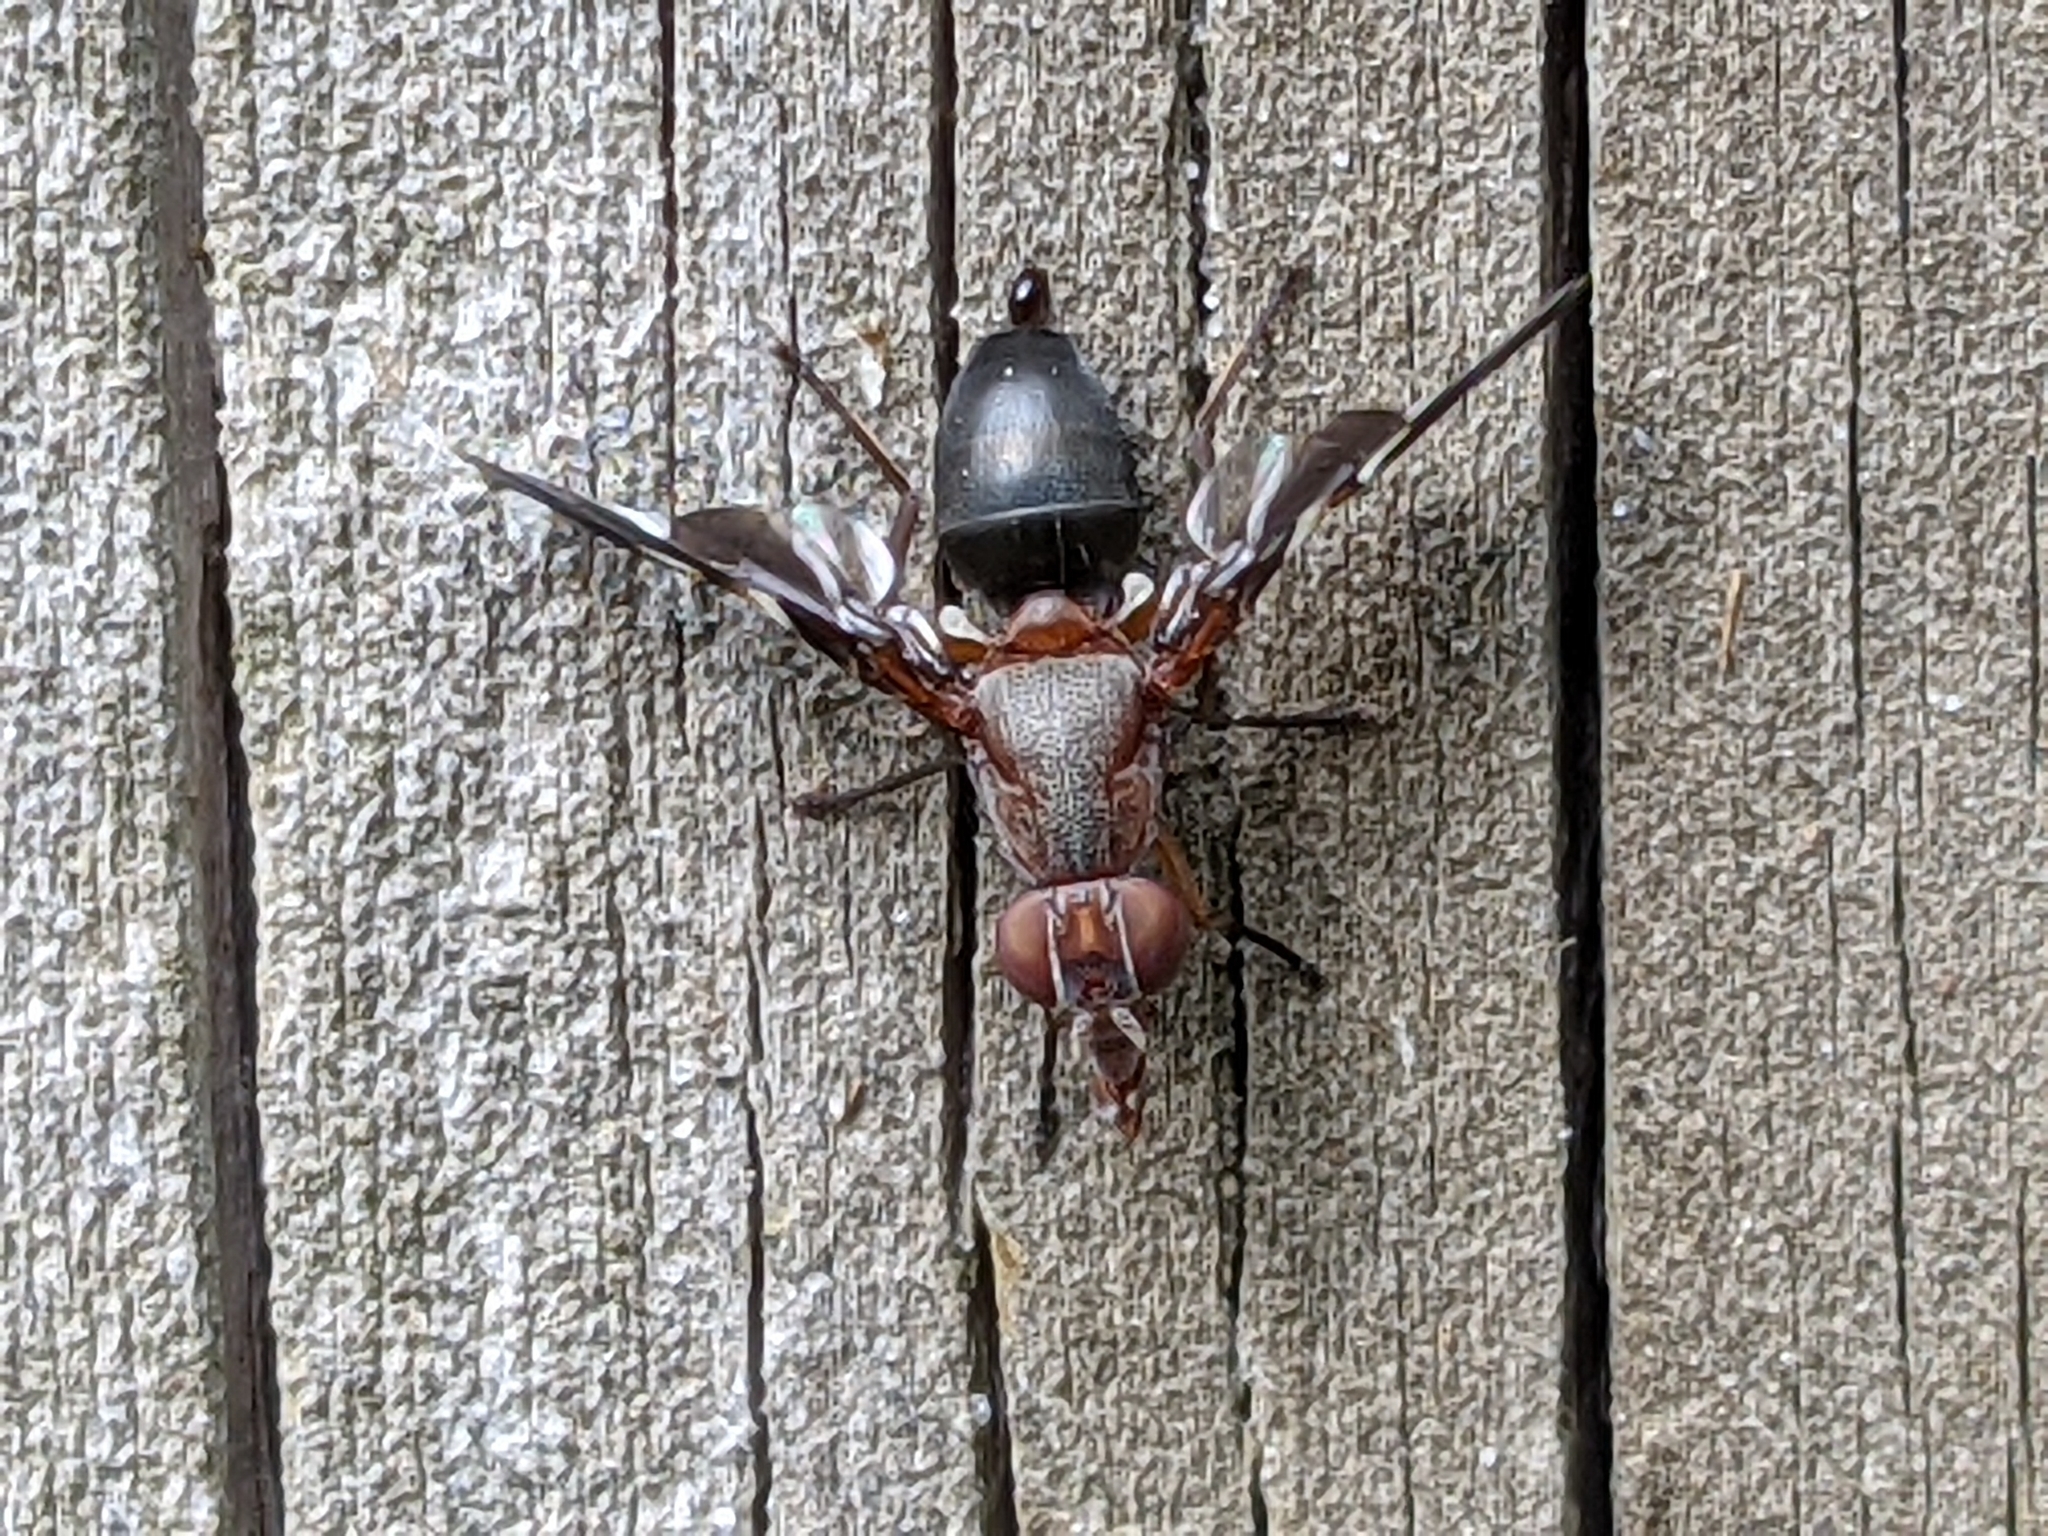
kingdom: Animalia
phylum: Arthropoda
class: Insecta
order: Diptera
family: Ulidiidae
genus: Delphinia
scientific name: Delphinia picta
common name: Common picture-winged fly
